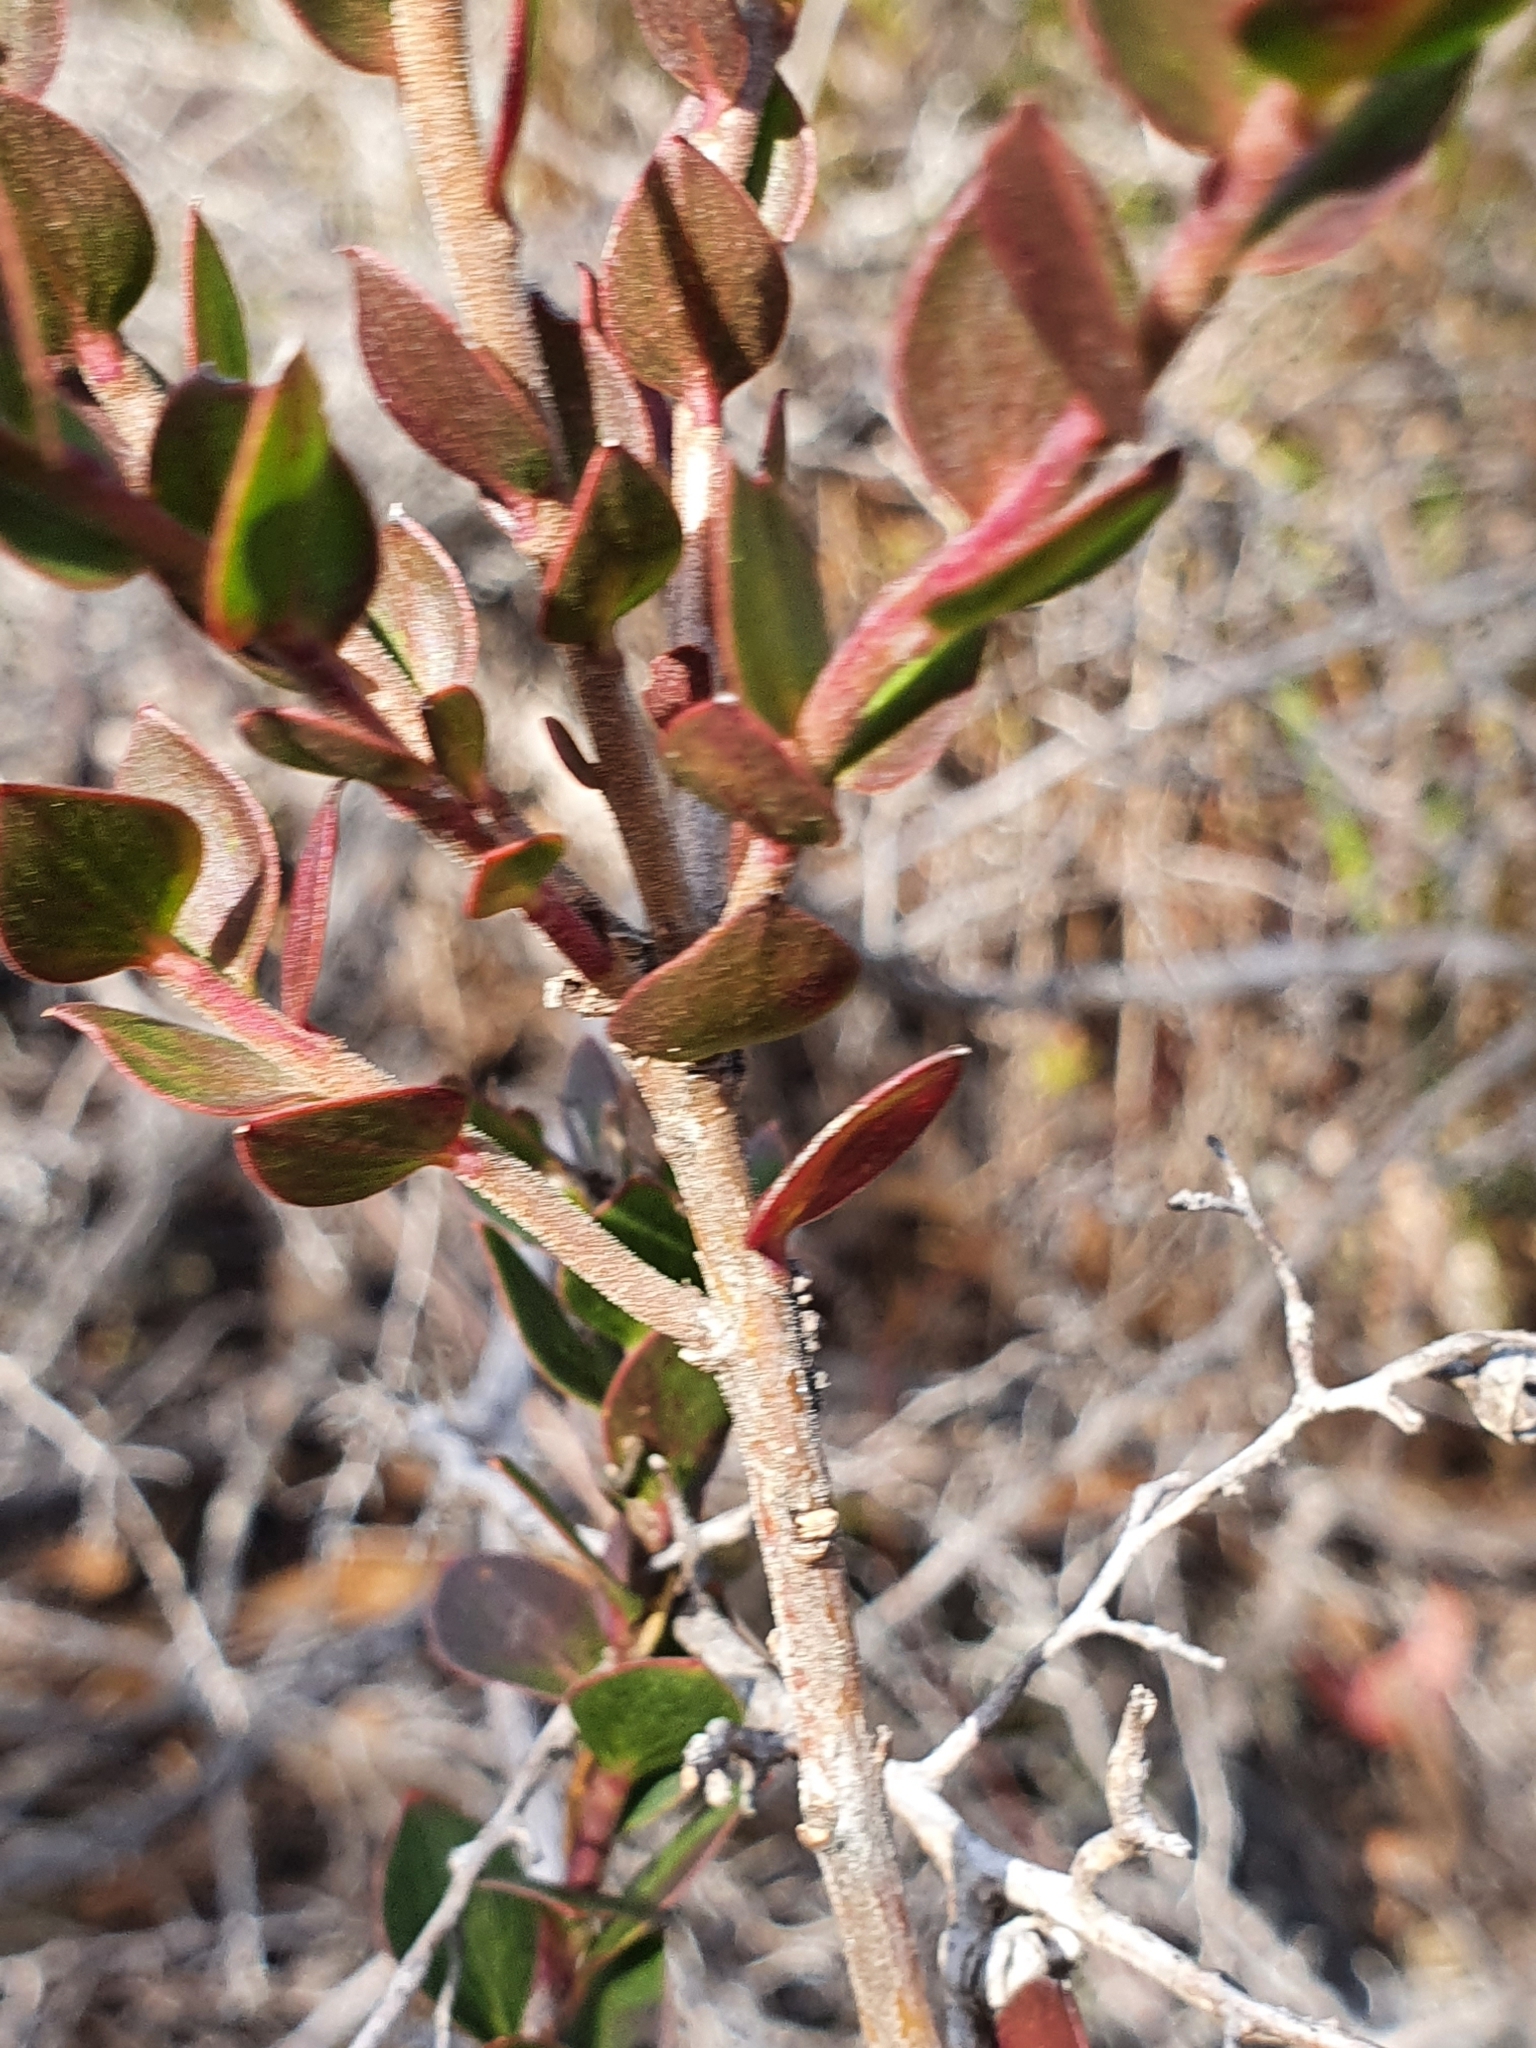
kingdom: Plantae
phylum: Tracheophyta
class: Magnoliopsida
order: Apiales
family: Apiaceae
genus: Platysace
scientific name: Platysace lanceolata
